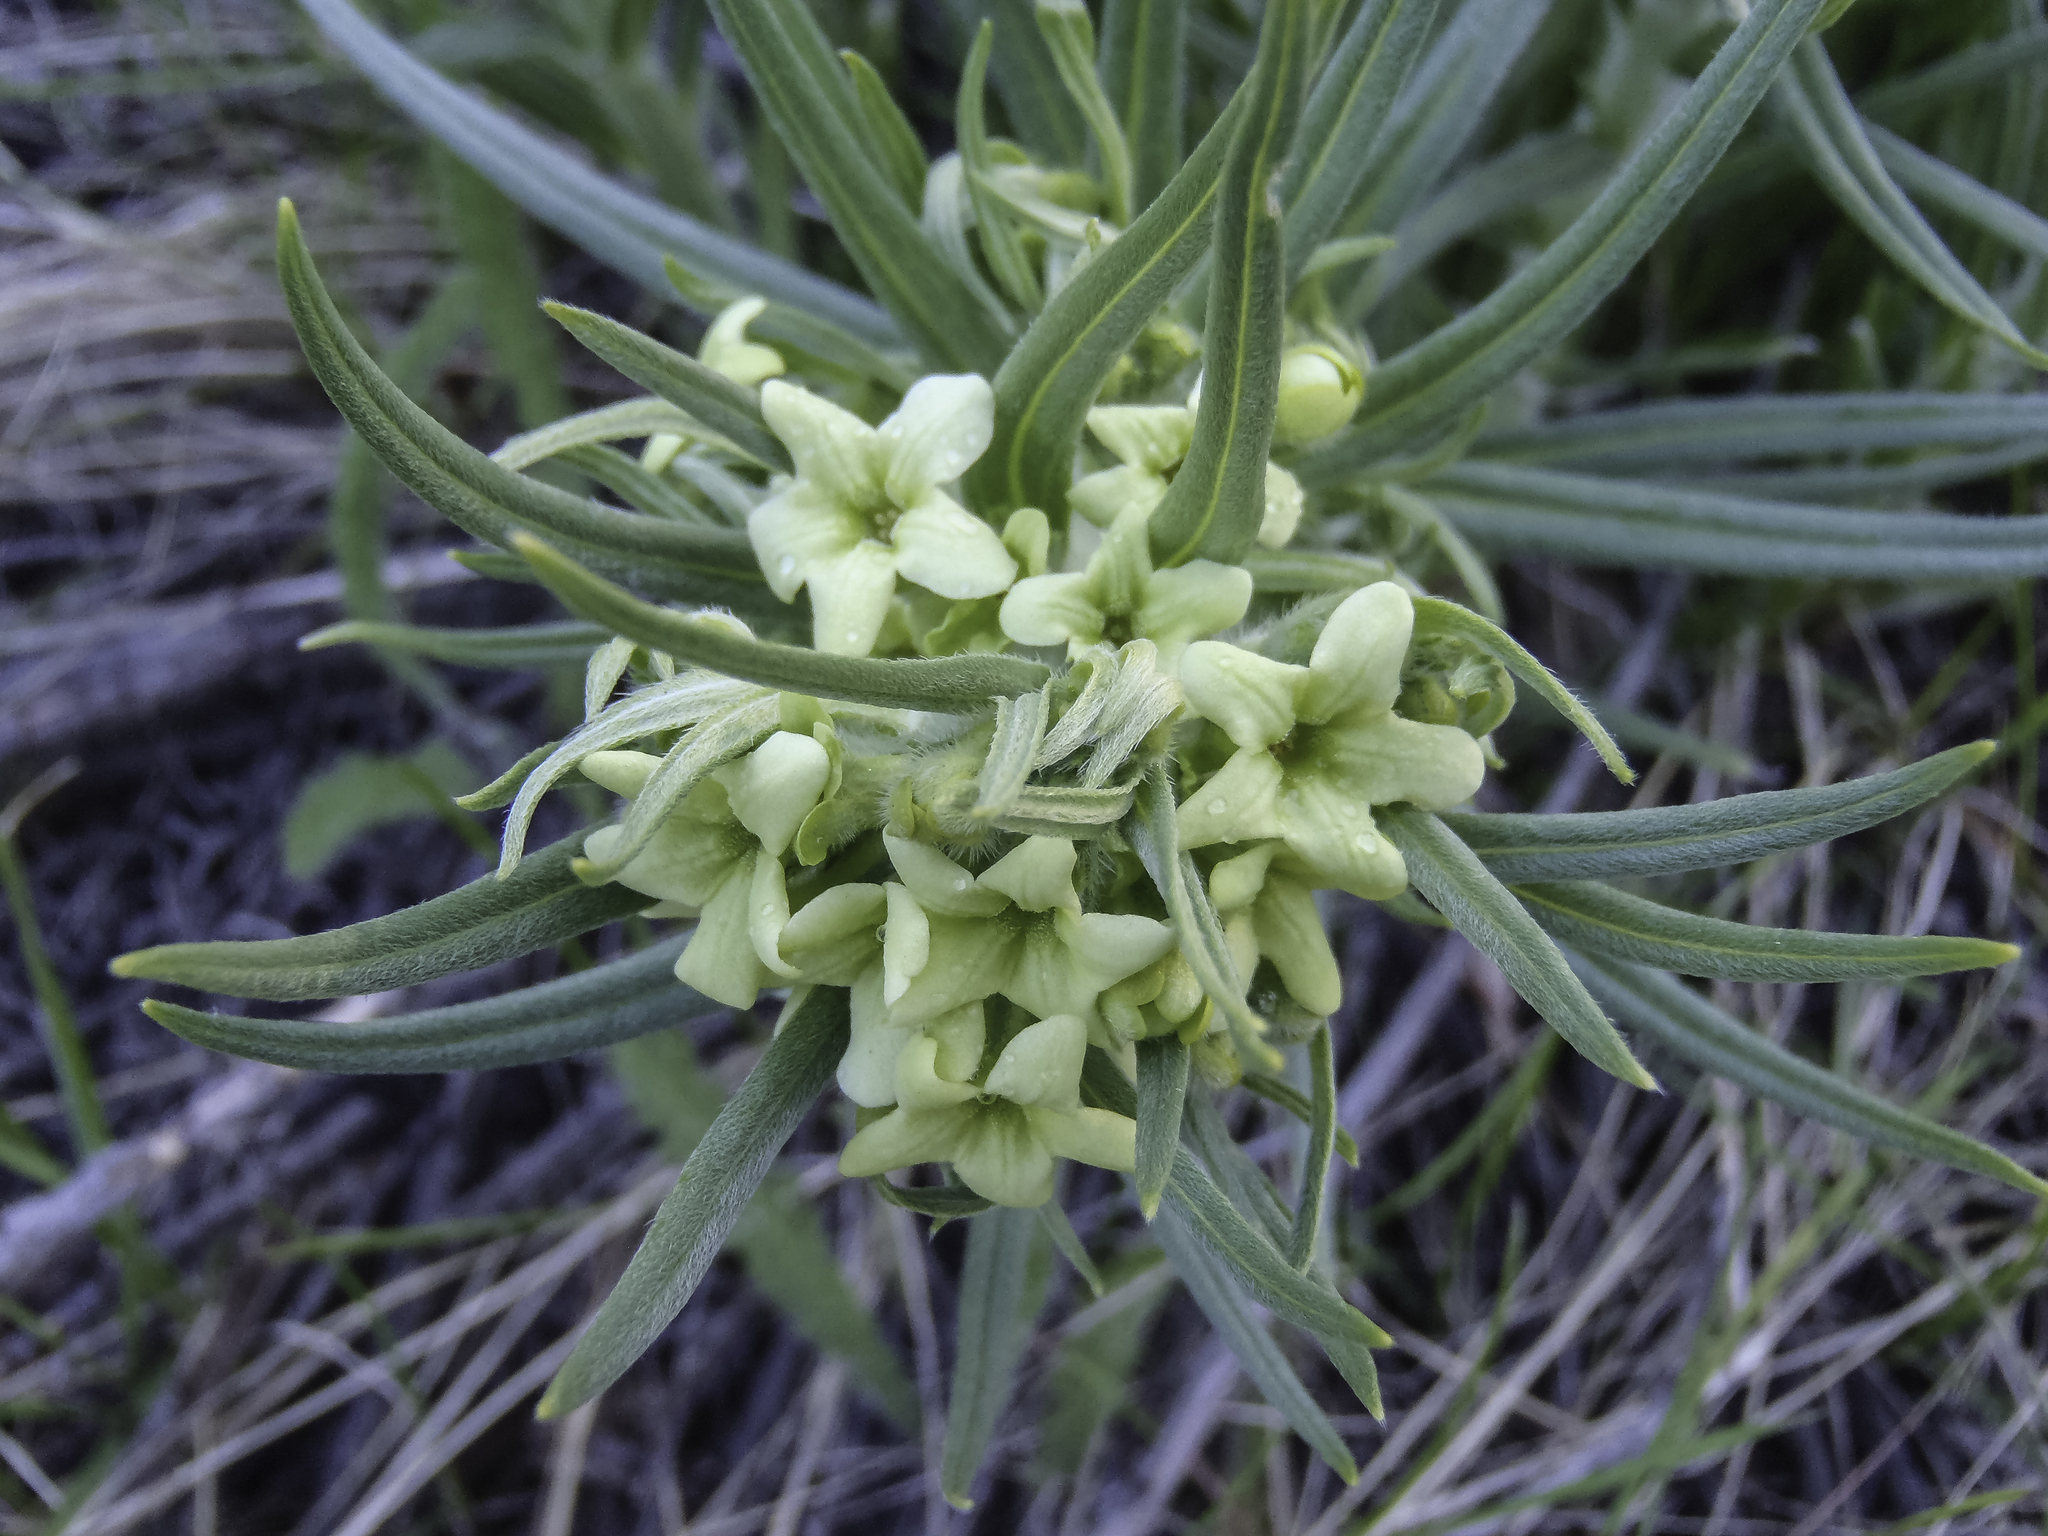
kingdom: Plantae
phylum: Tracheophyta
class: Magnoliopsida
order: Boraginales
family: Boraginaceae
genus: Lithospermum
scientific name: Lithospermum ruderale
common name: Western gromwell
